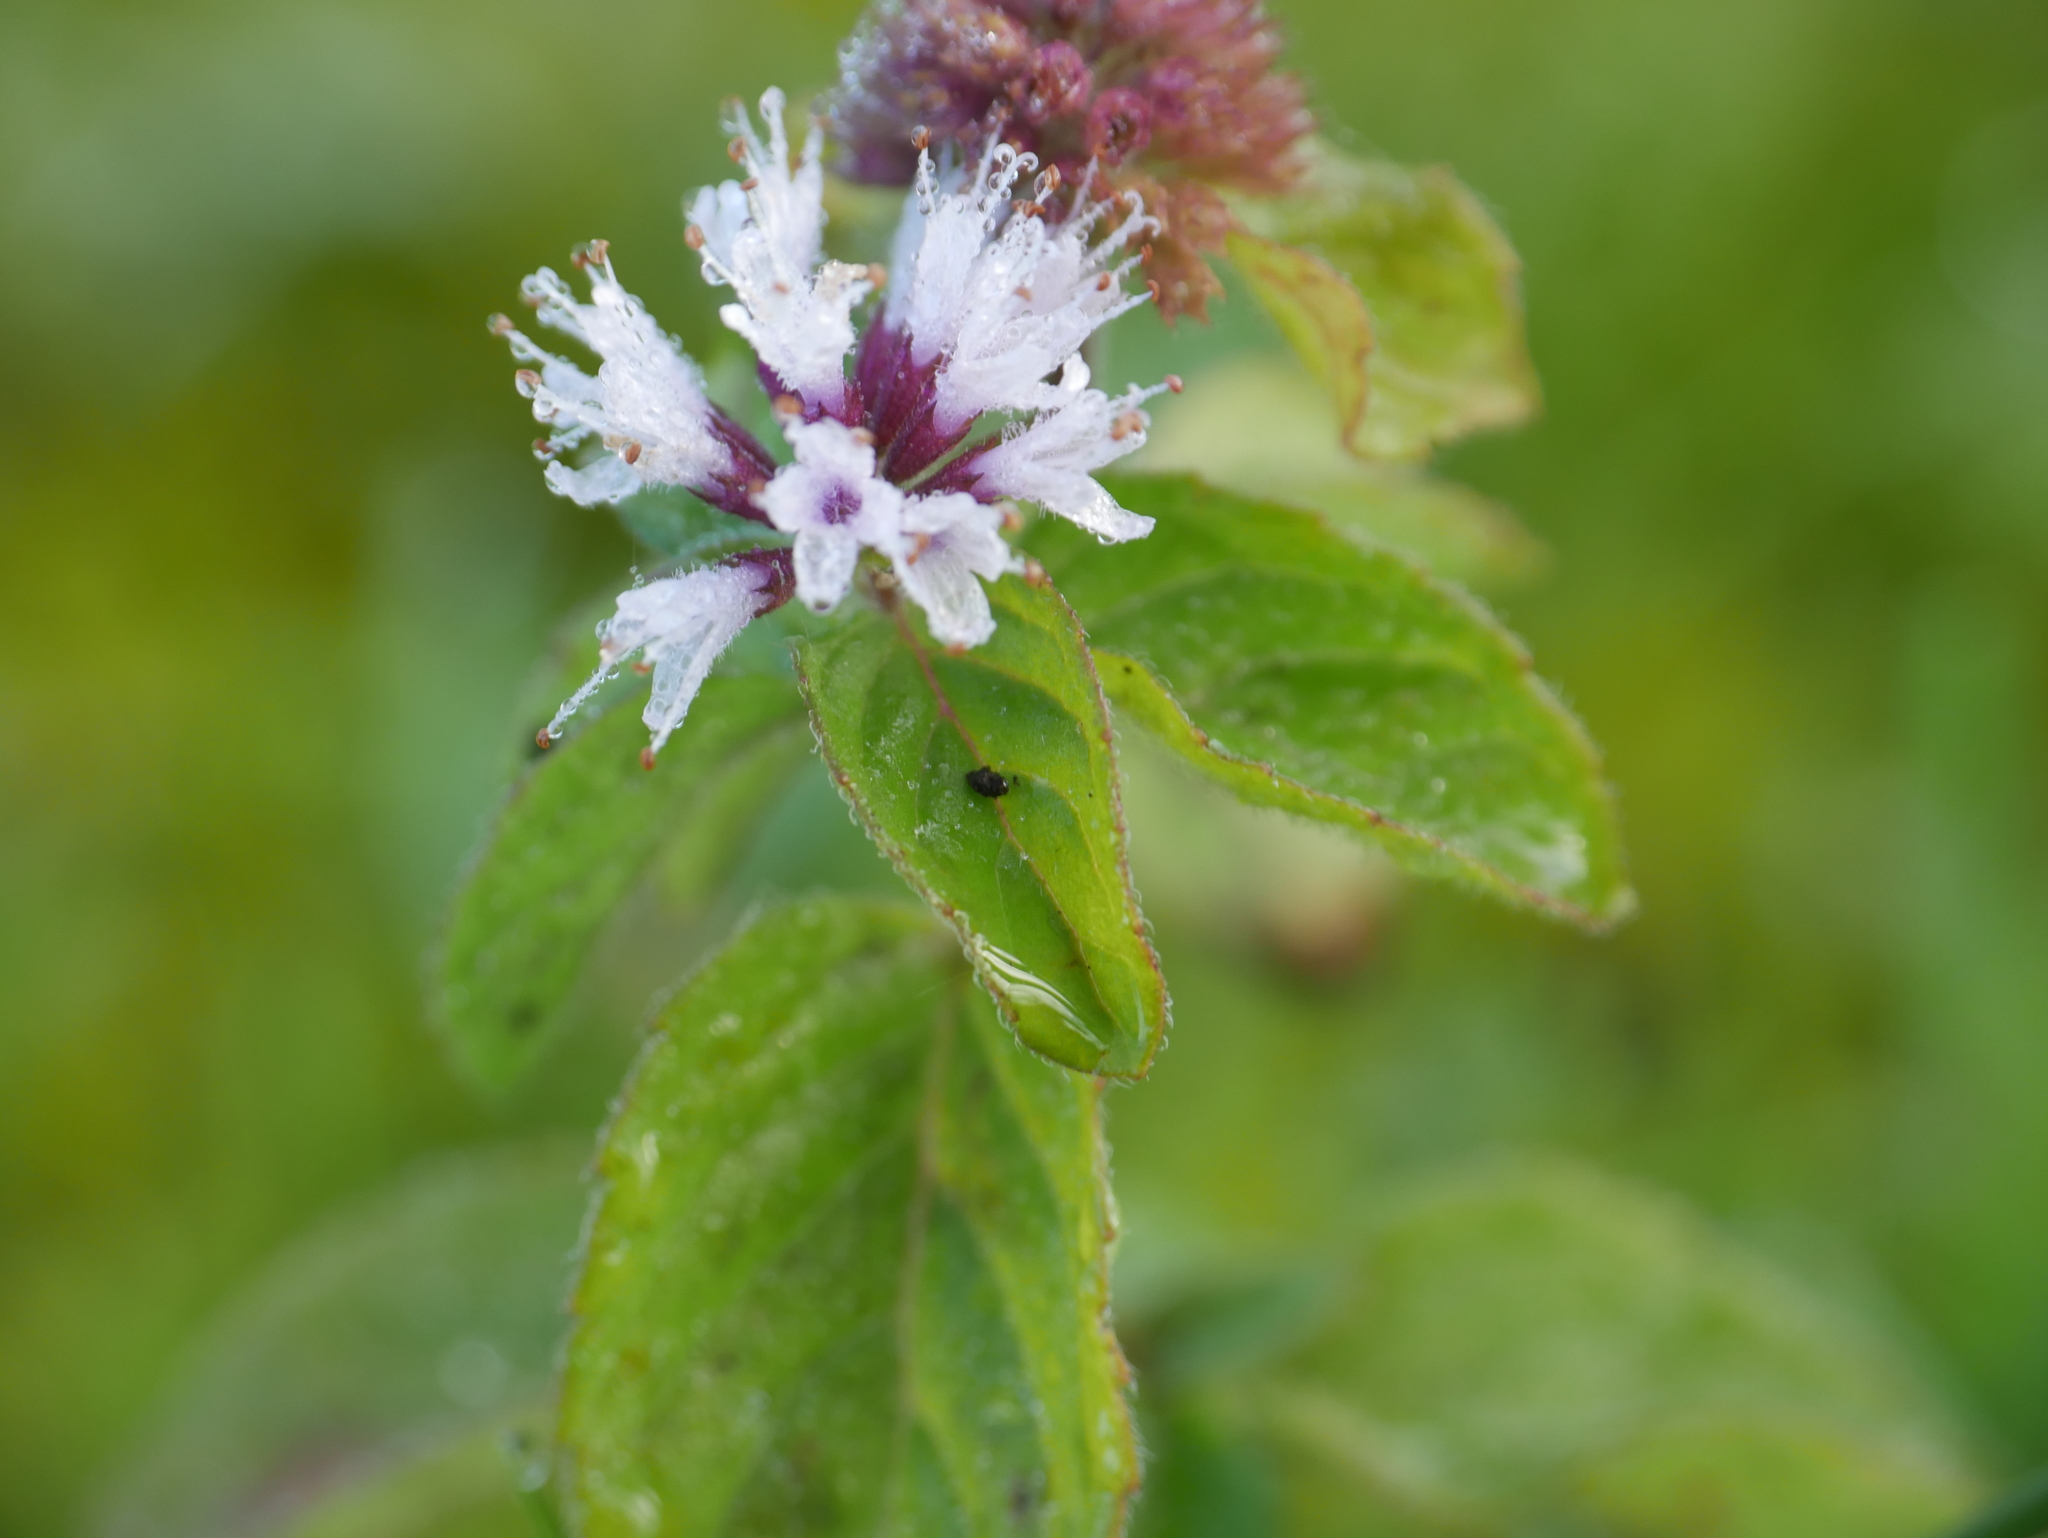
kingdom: Plantae
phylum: Tracheophyta
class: Magnoliopsida
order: Lamiales
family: Lamiaceae
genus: Mentha
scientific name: Mentha aquatica
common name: Water mint
